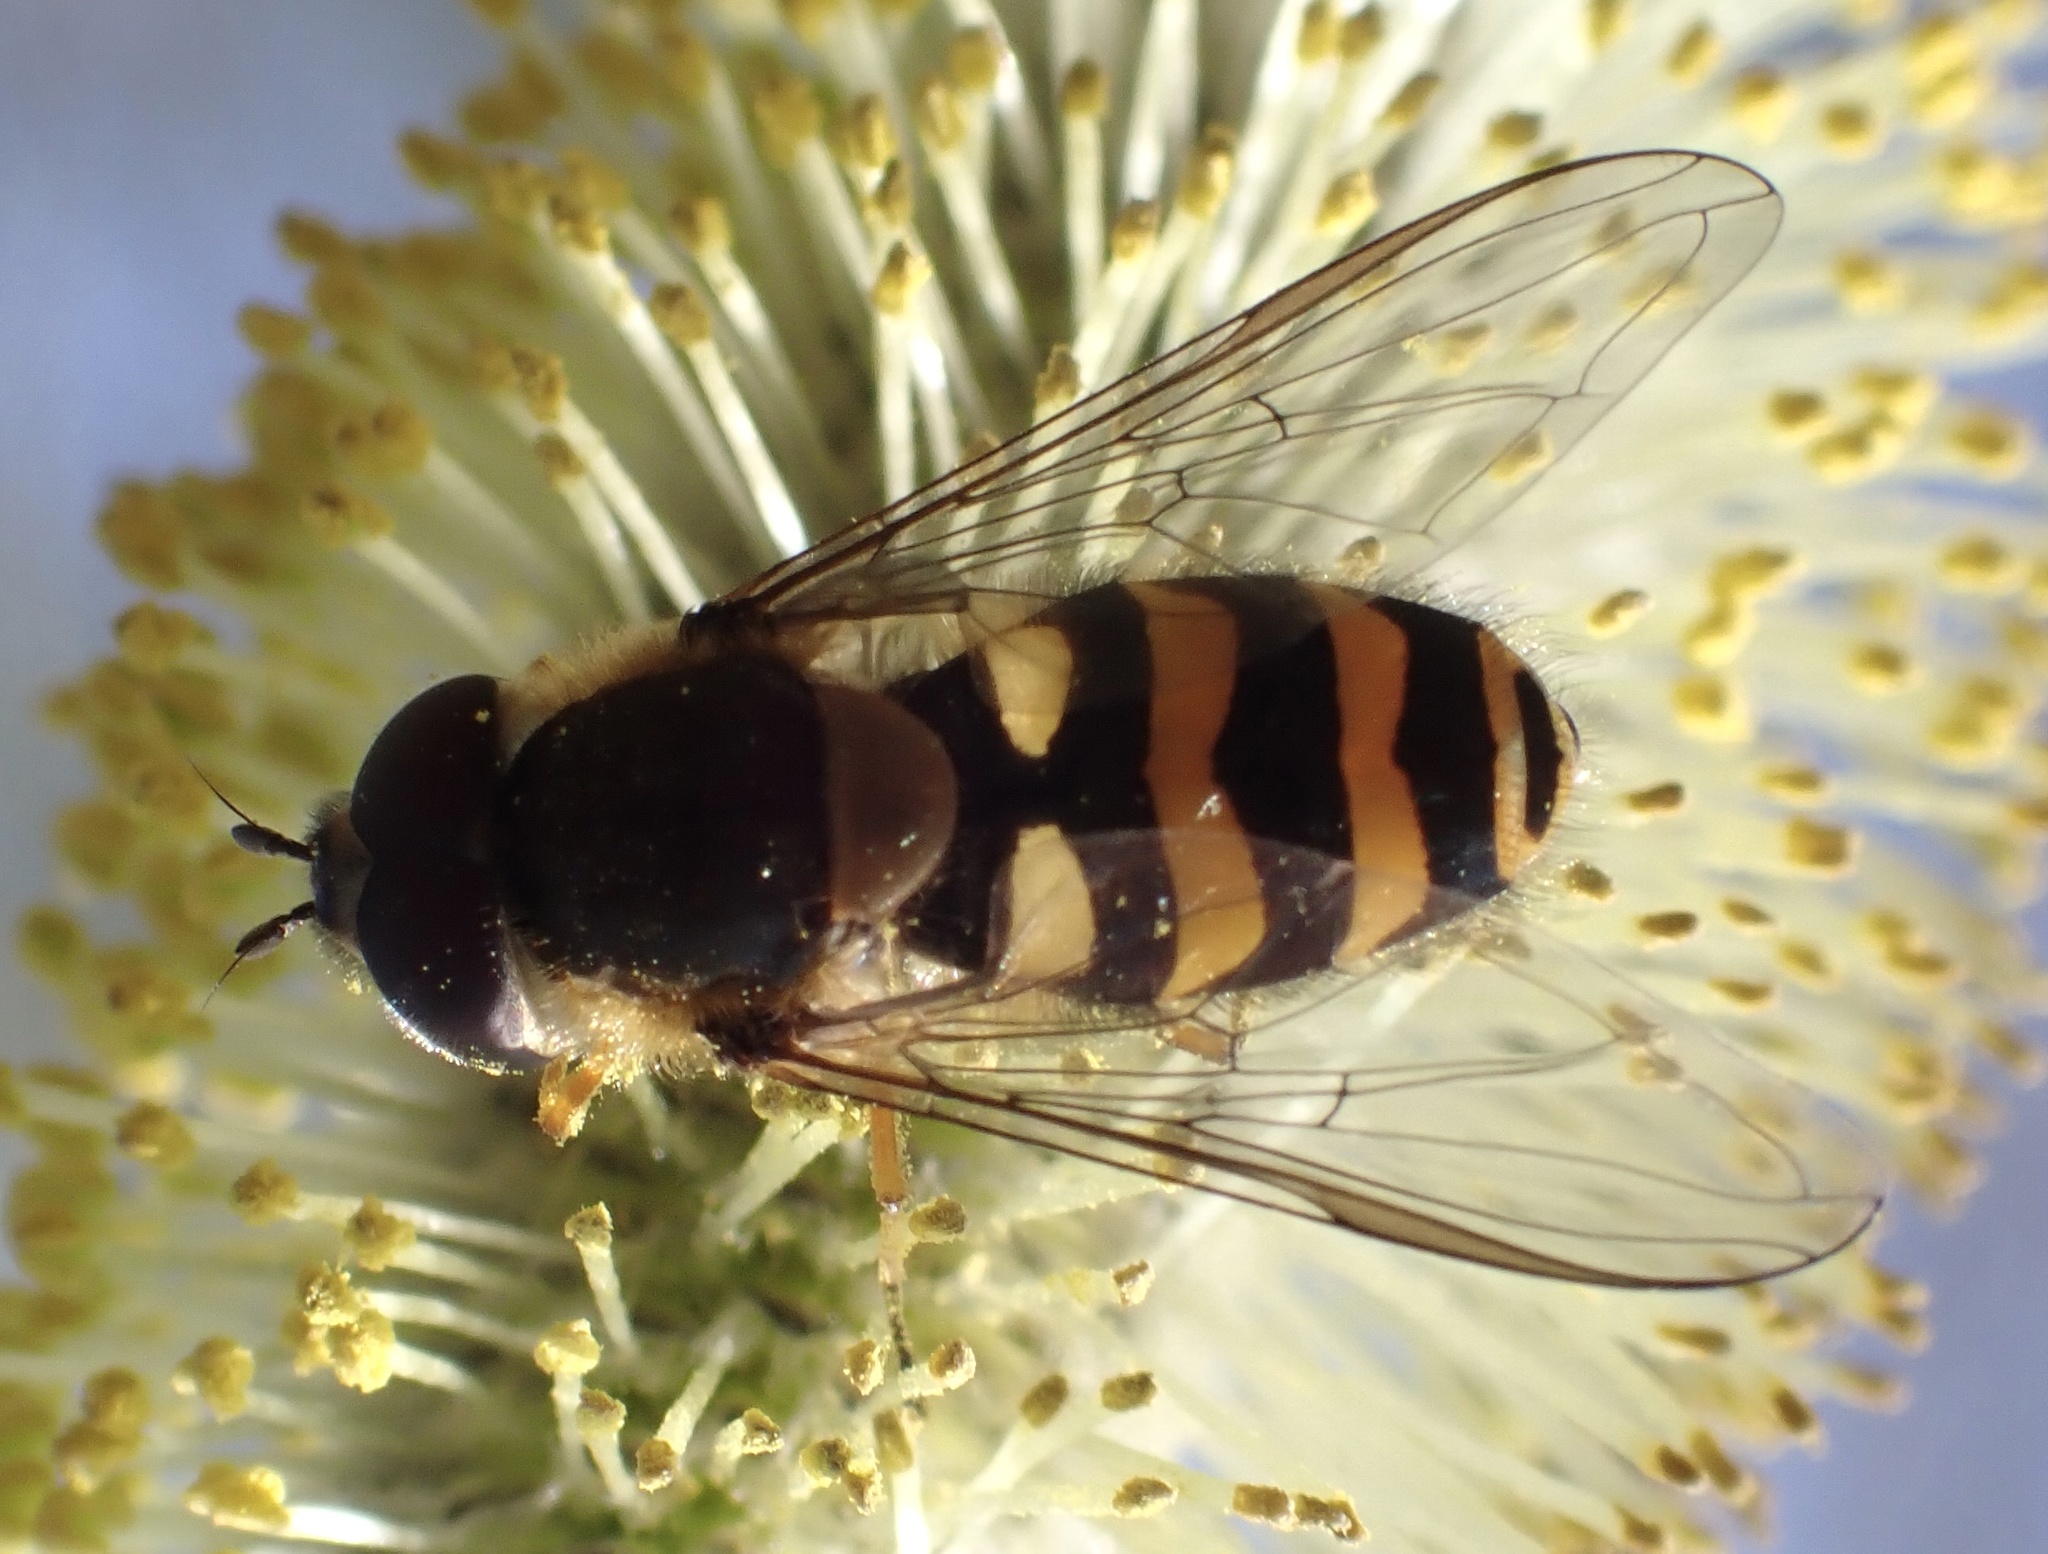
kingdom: Animalia
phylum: Arthropoda
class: Insecta
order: Diptera
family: Syrphidae
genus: Syrphus
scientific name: Syrphus torvus
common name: Hairy-eyed flower fly
